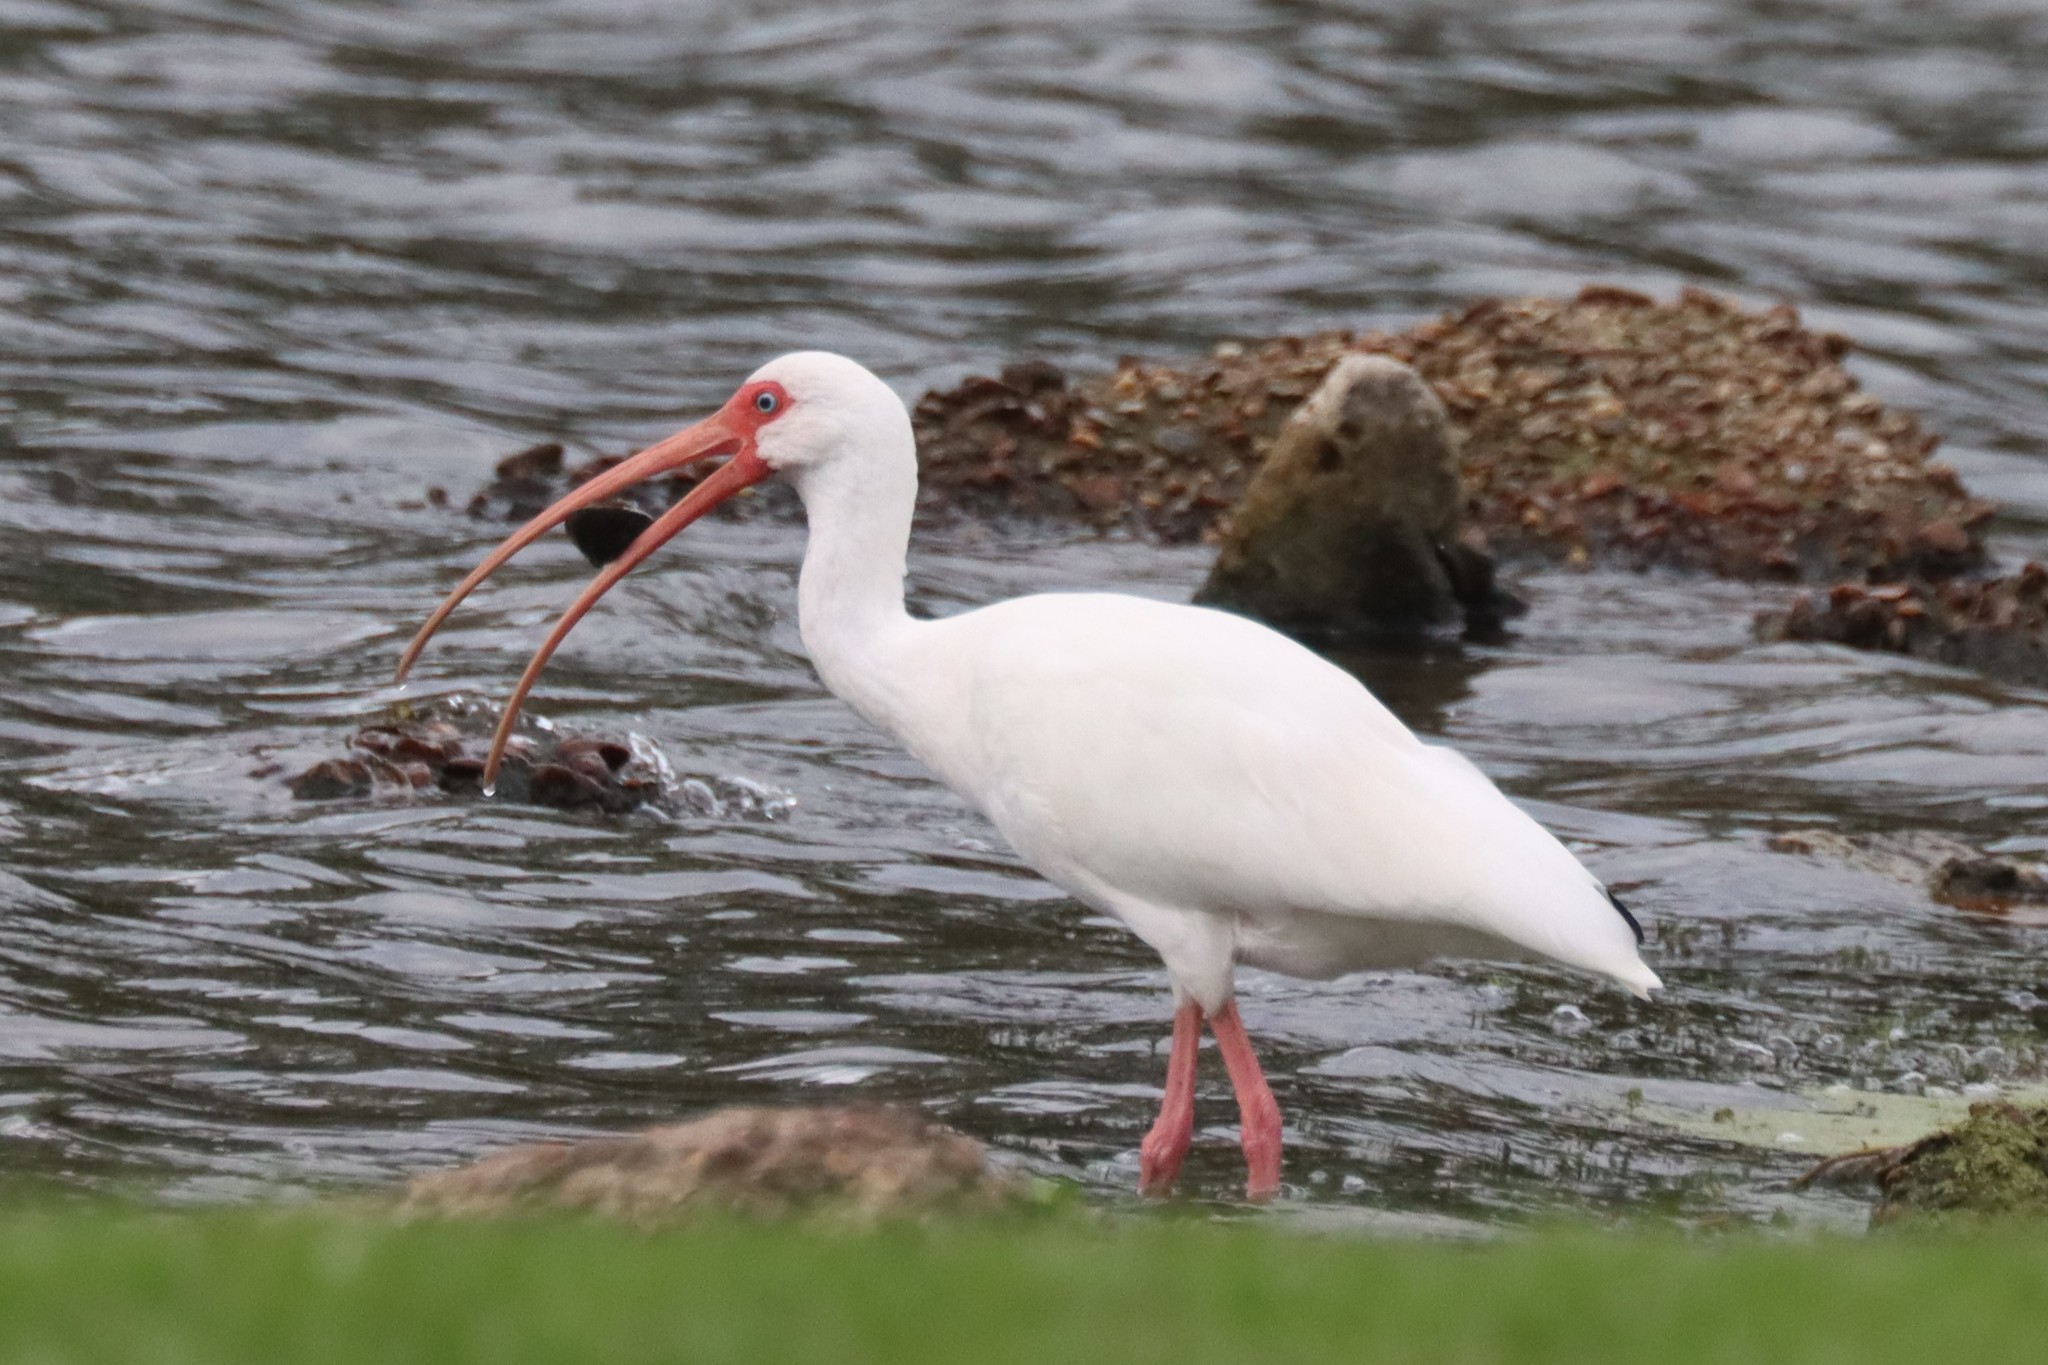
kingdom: Animalia
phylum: Chordata
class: Aves
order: Pelecaniformes
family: Threskiornithidae
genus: Eudocimus
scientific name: Eudocimus albus
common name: White ibis
